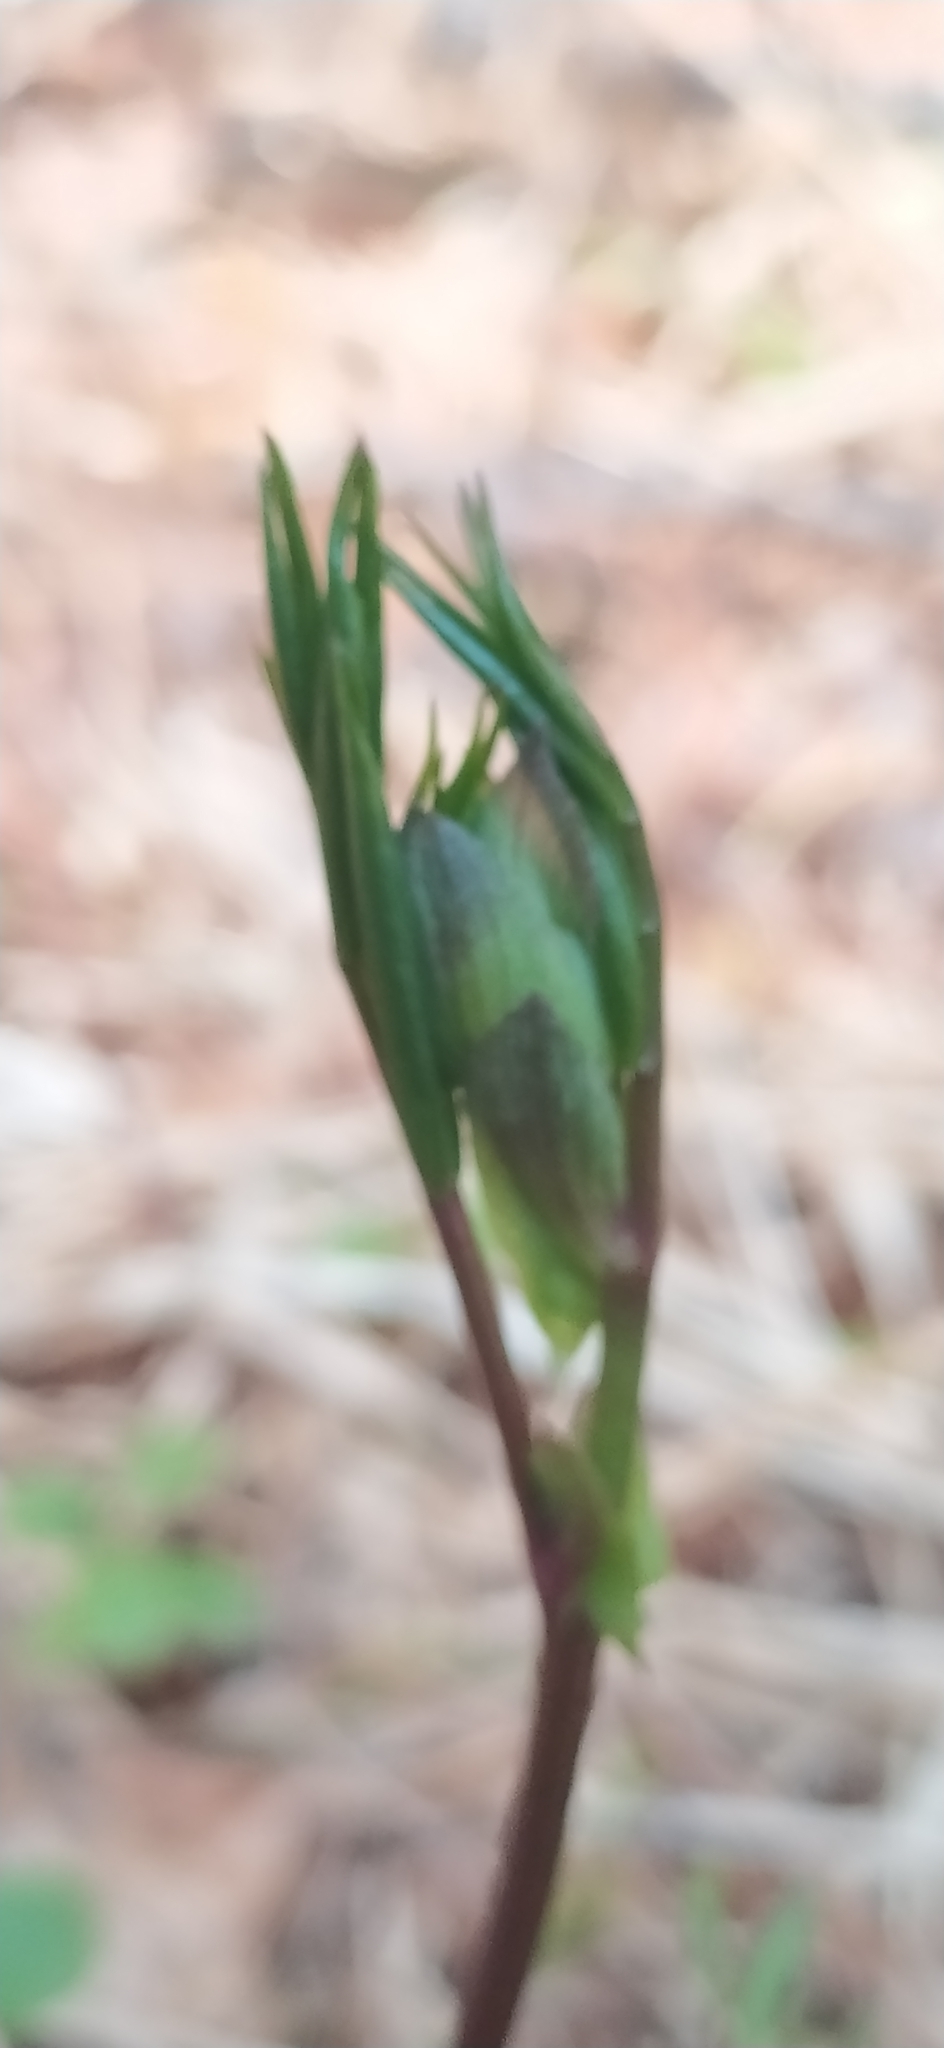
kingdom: Plantae
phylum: Tracheophyta
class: Magnoliopsida
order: Fabales
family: Fabaceae
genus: Lathyrus
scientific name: Lathyrus vernus
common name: Spring pea
